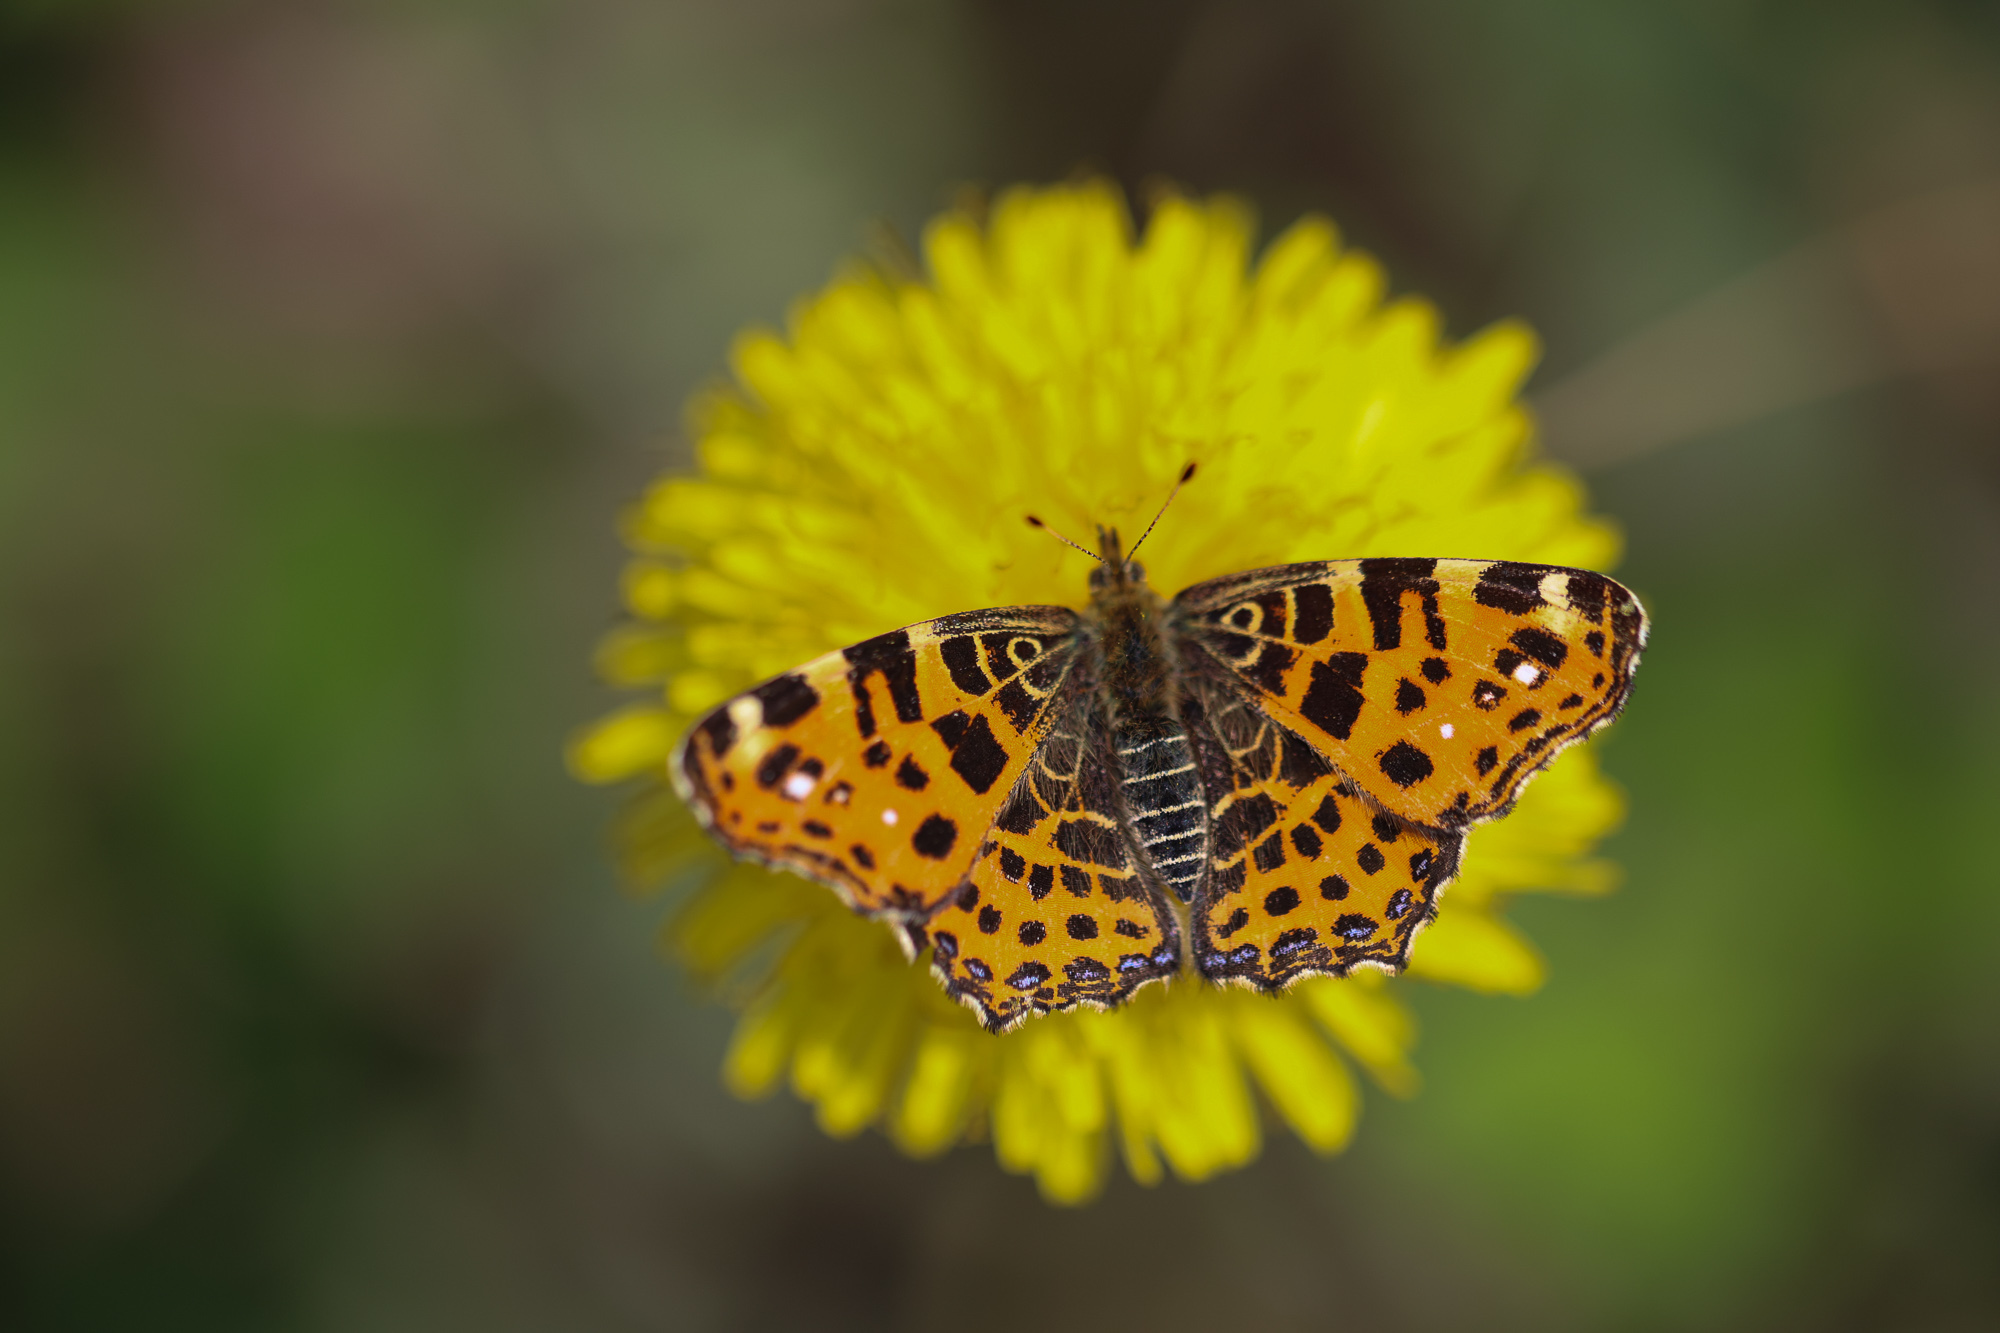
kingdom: Animalia
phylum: Arthropoda
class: Insecta
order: Lepidoptera
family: Nymphalidae
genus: Araschnia
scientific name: Araschnia levana
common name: Map butterfly
